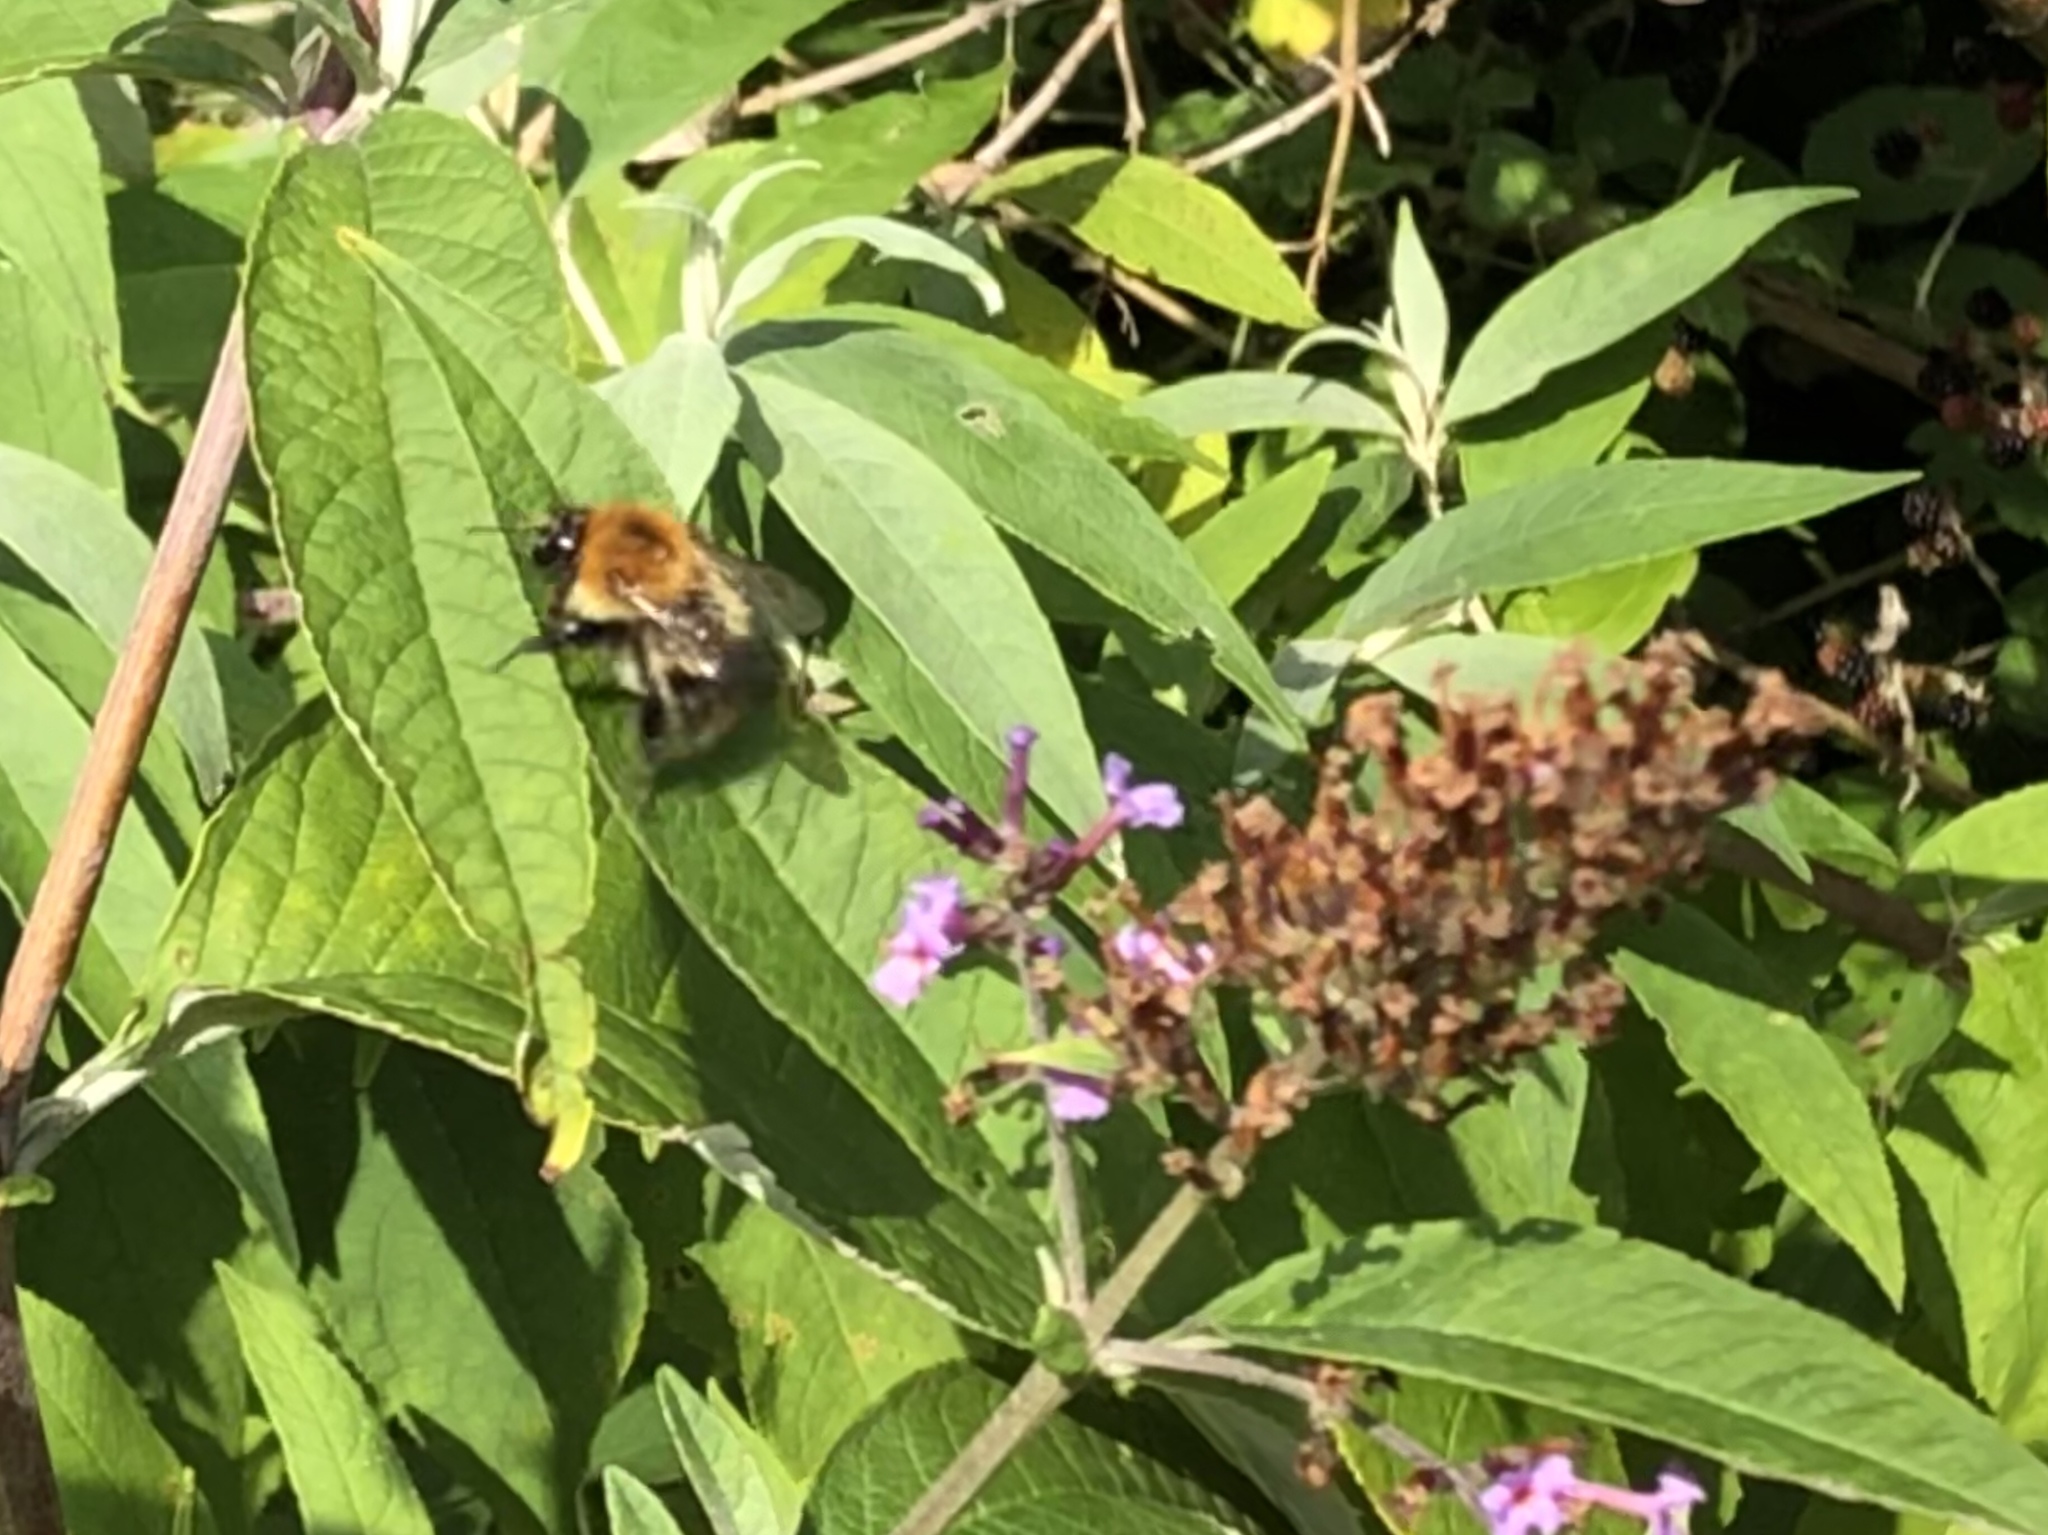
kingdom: Animalia
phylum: Arthropoda
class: Insecta
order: Hymenoptera
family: Apidae
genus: Bombus
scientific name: Bombus pascuorum
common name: Common carder bee
